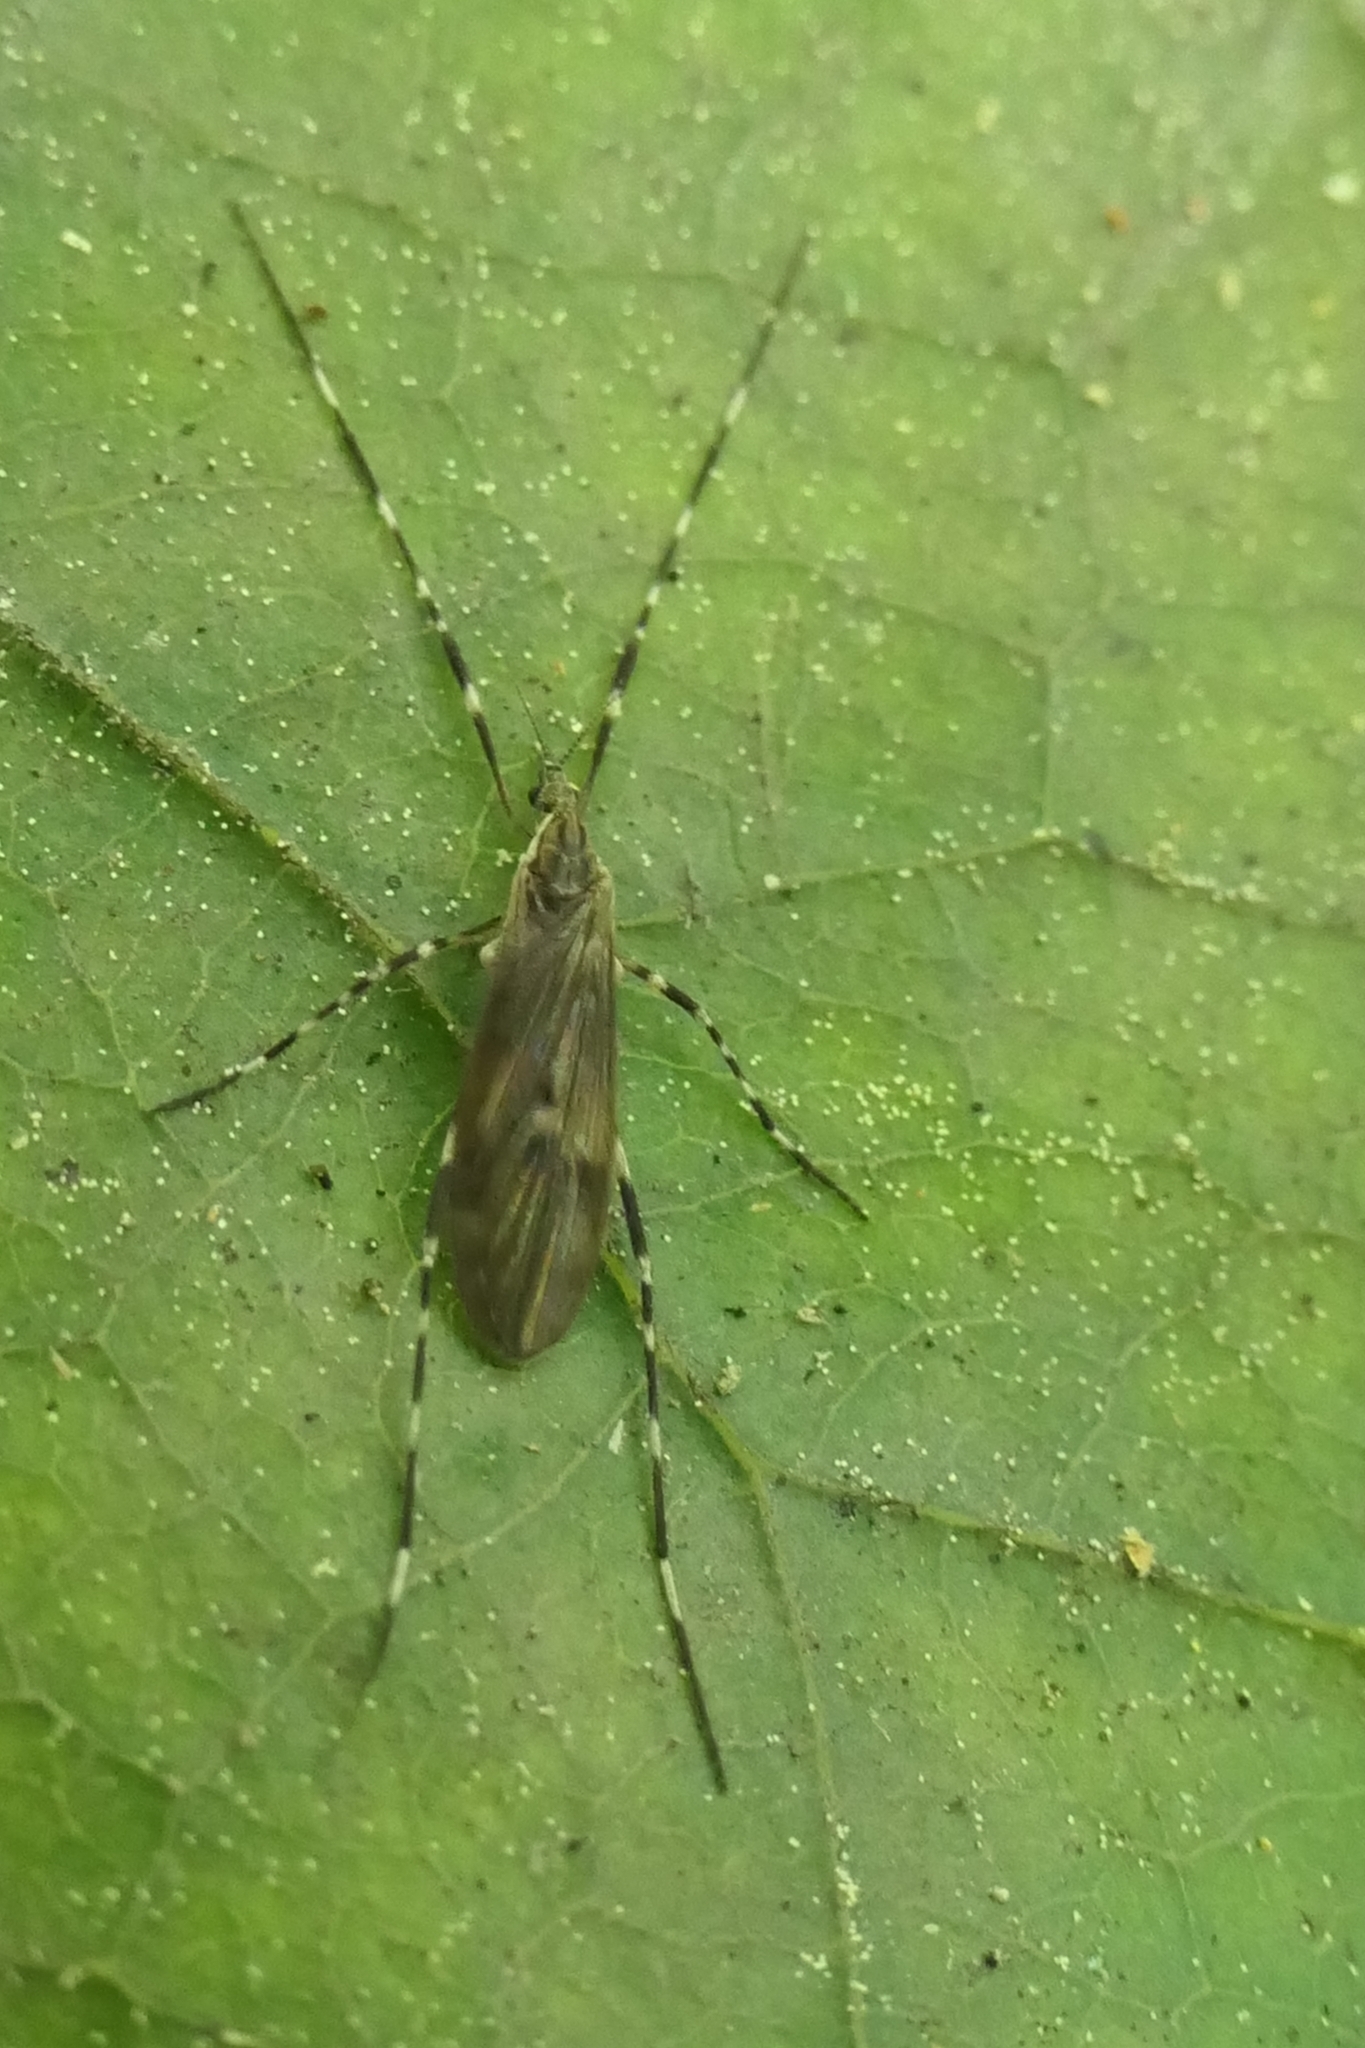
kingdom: Animalia
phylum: Arthropoda
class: Insecta
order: Diptera
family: Limoniidae
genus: Amphineurus
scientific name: Amphineurus hudsoni
